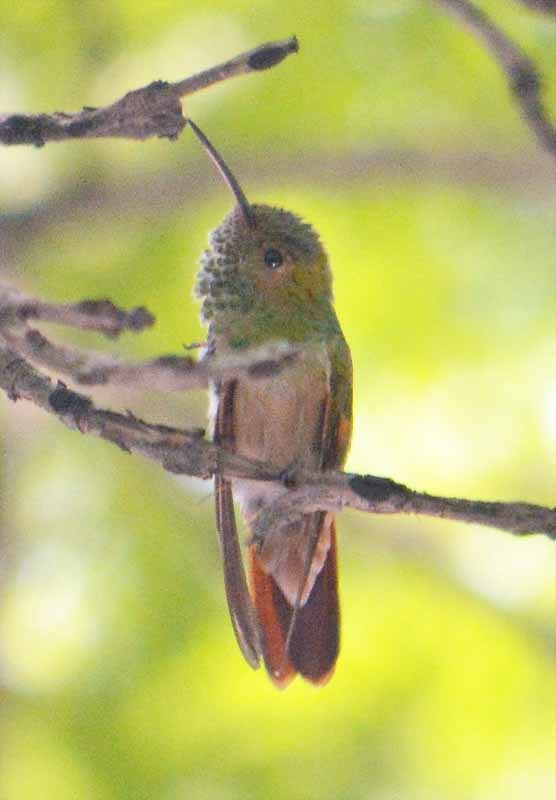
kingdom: Animalia
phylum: Chordata
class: Aves
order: Apodiformes
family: Trochilidae
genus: Saucerottia
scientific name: Saucerottia beryllina
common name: Berylline hummingbird
